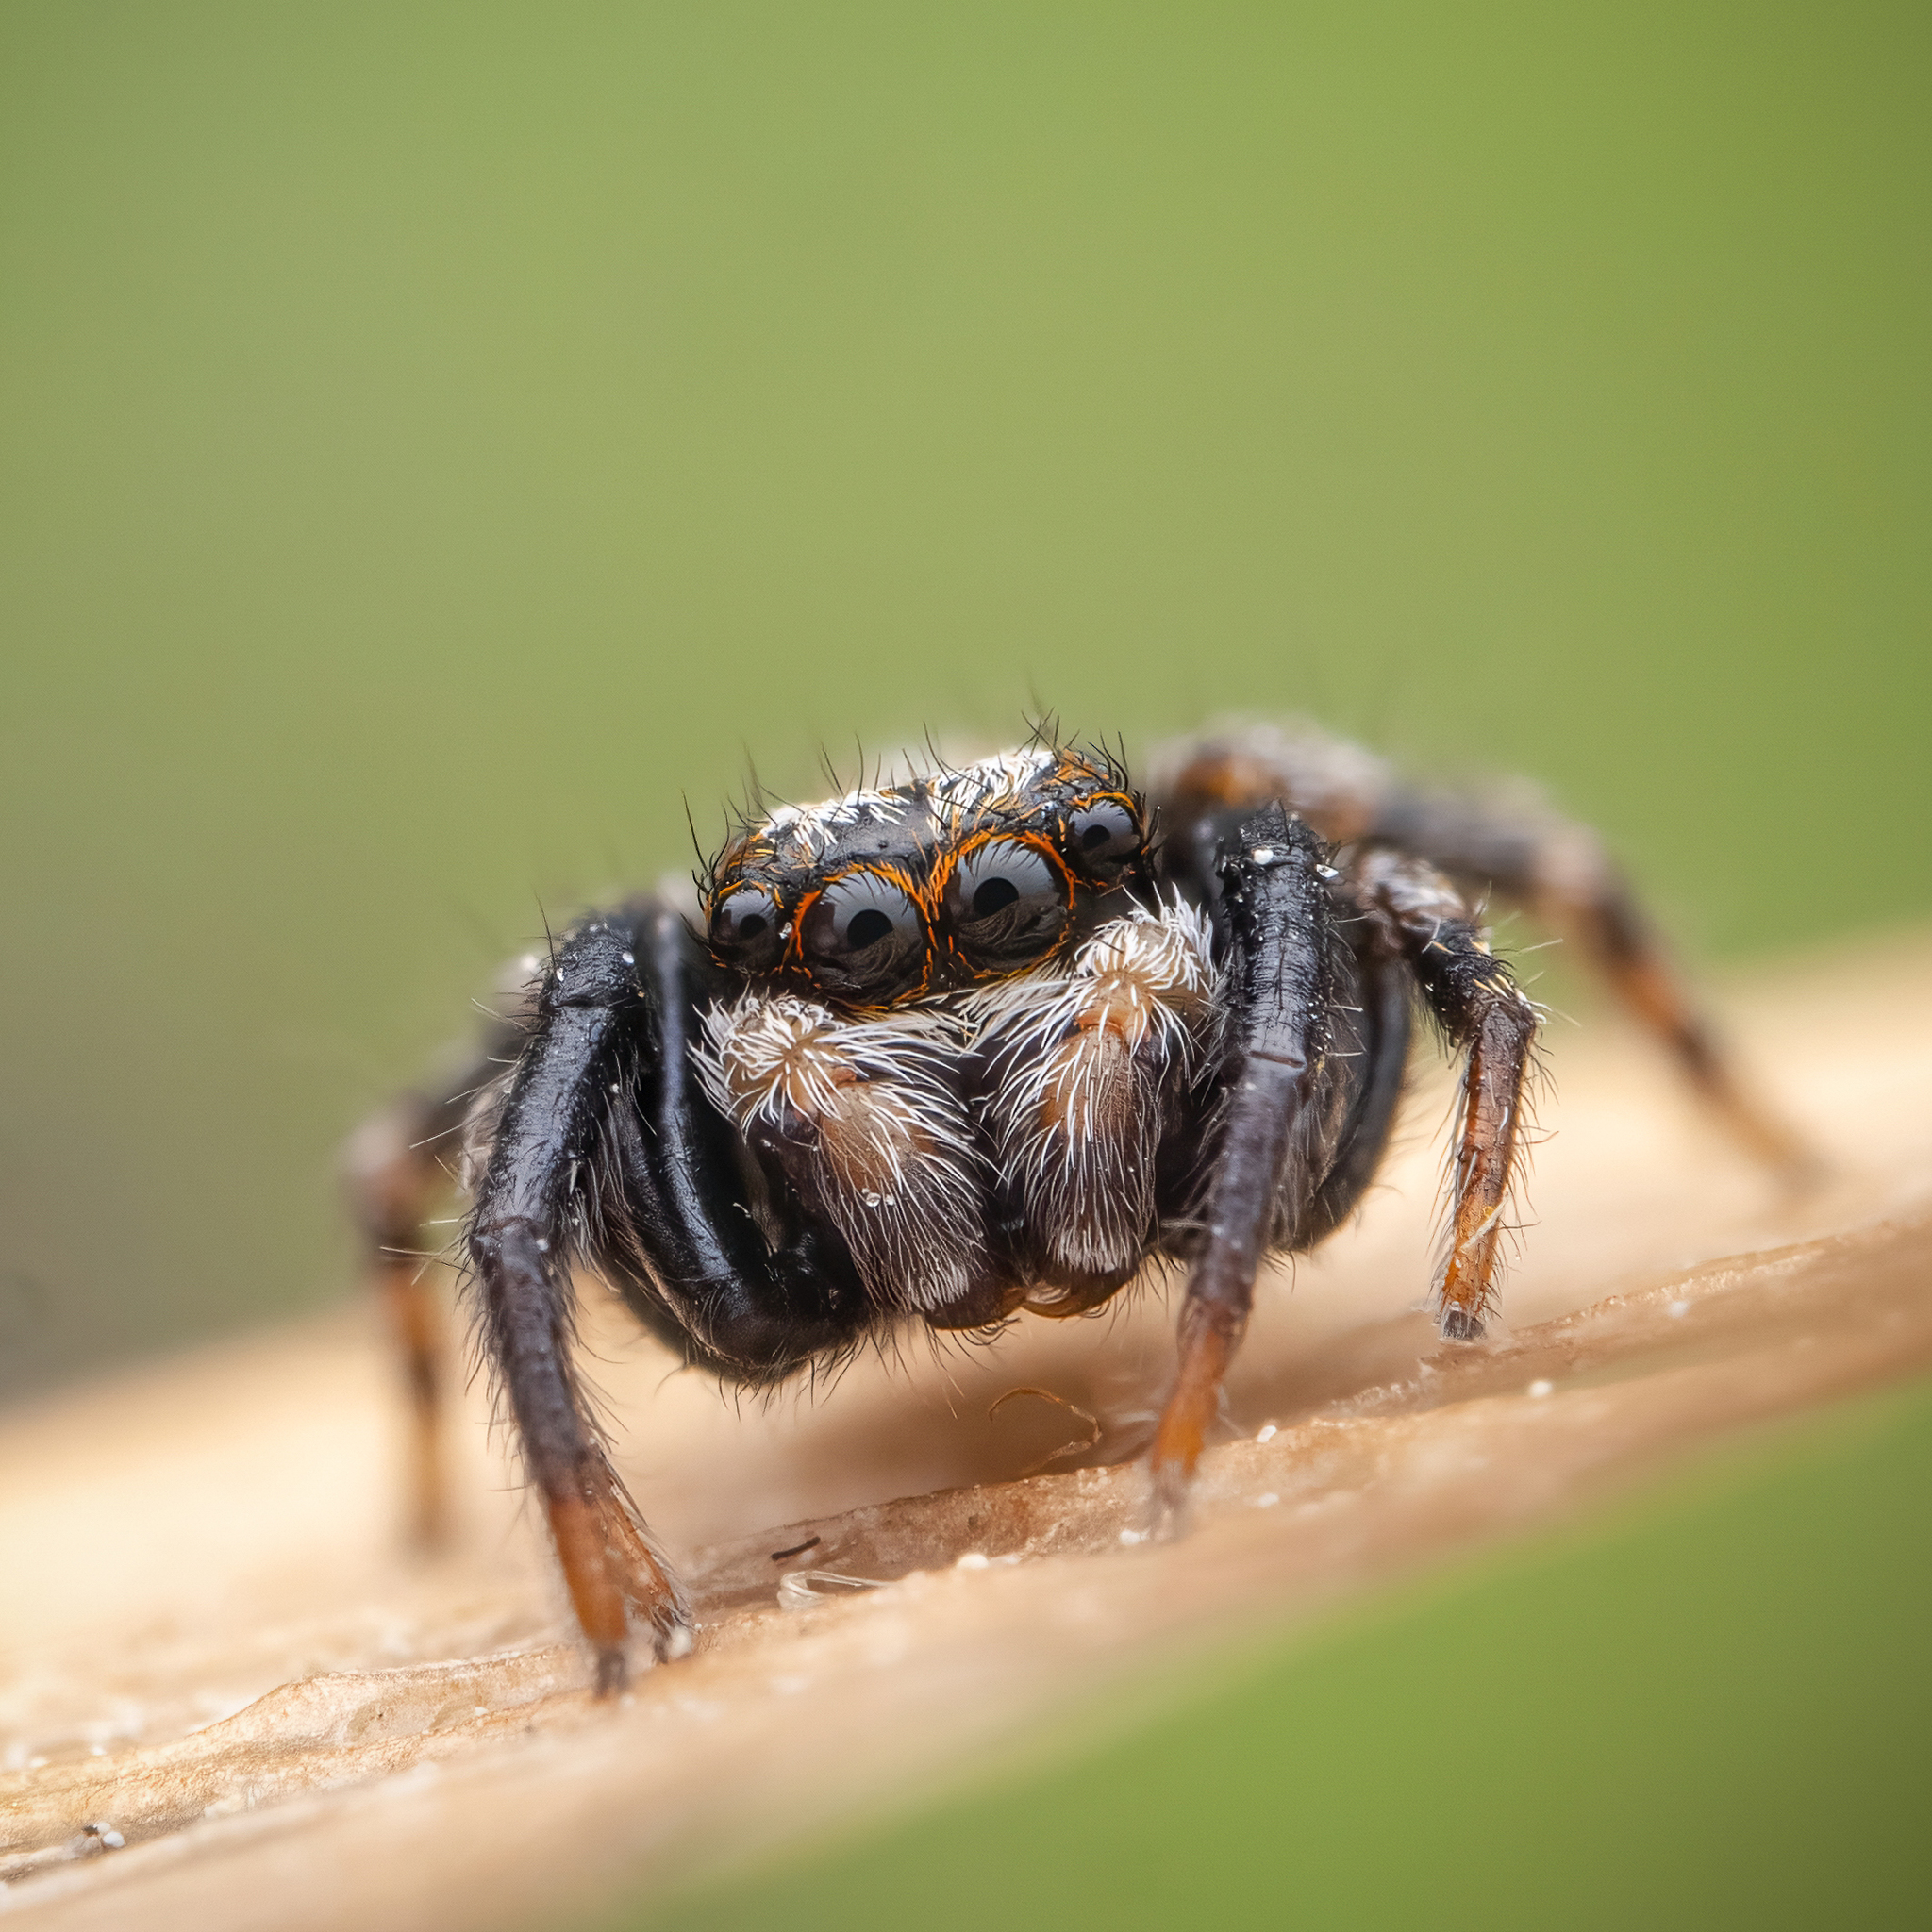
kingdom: Animalia
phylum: Arthropoda
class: Arachnida
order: Araneae
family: Salticidae
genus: Pseudeuophrys
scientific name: Pseudeuophrys lanigera
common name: Jumping spider
